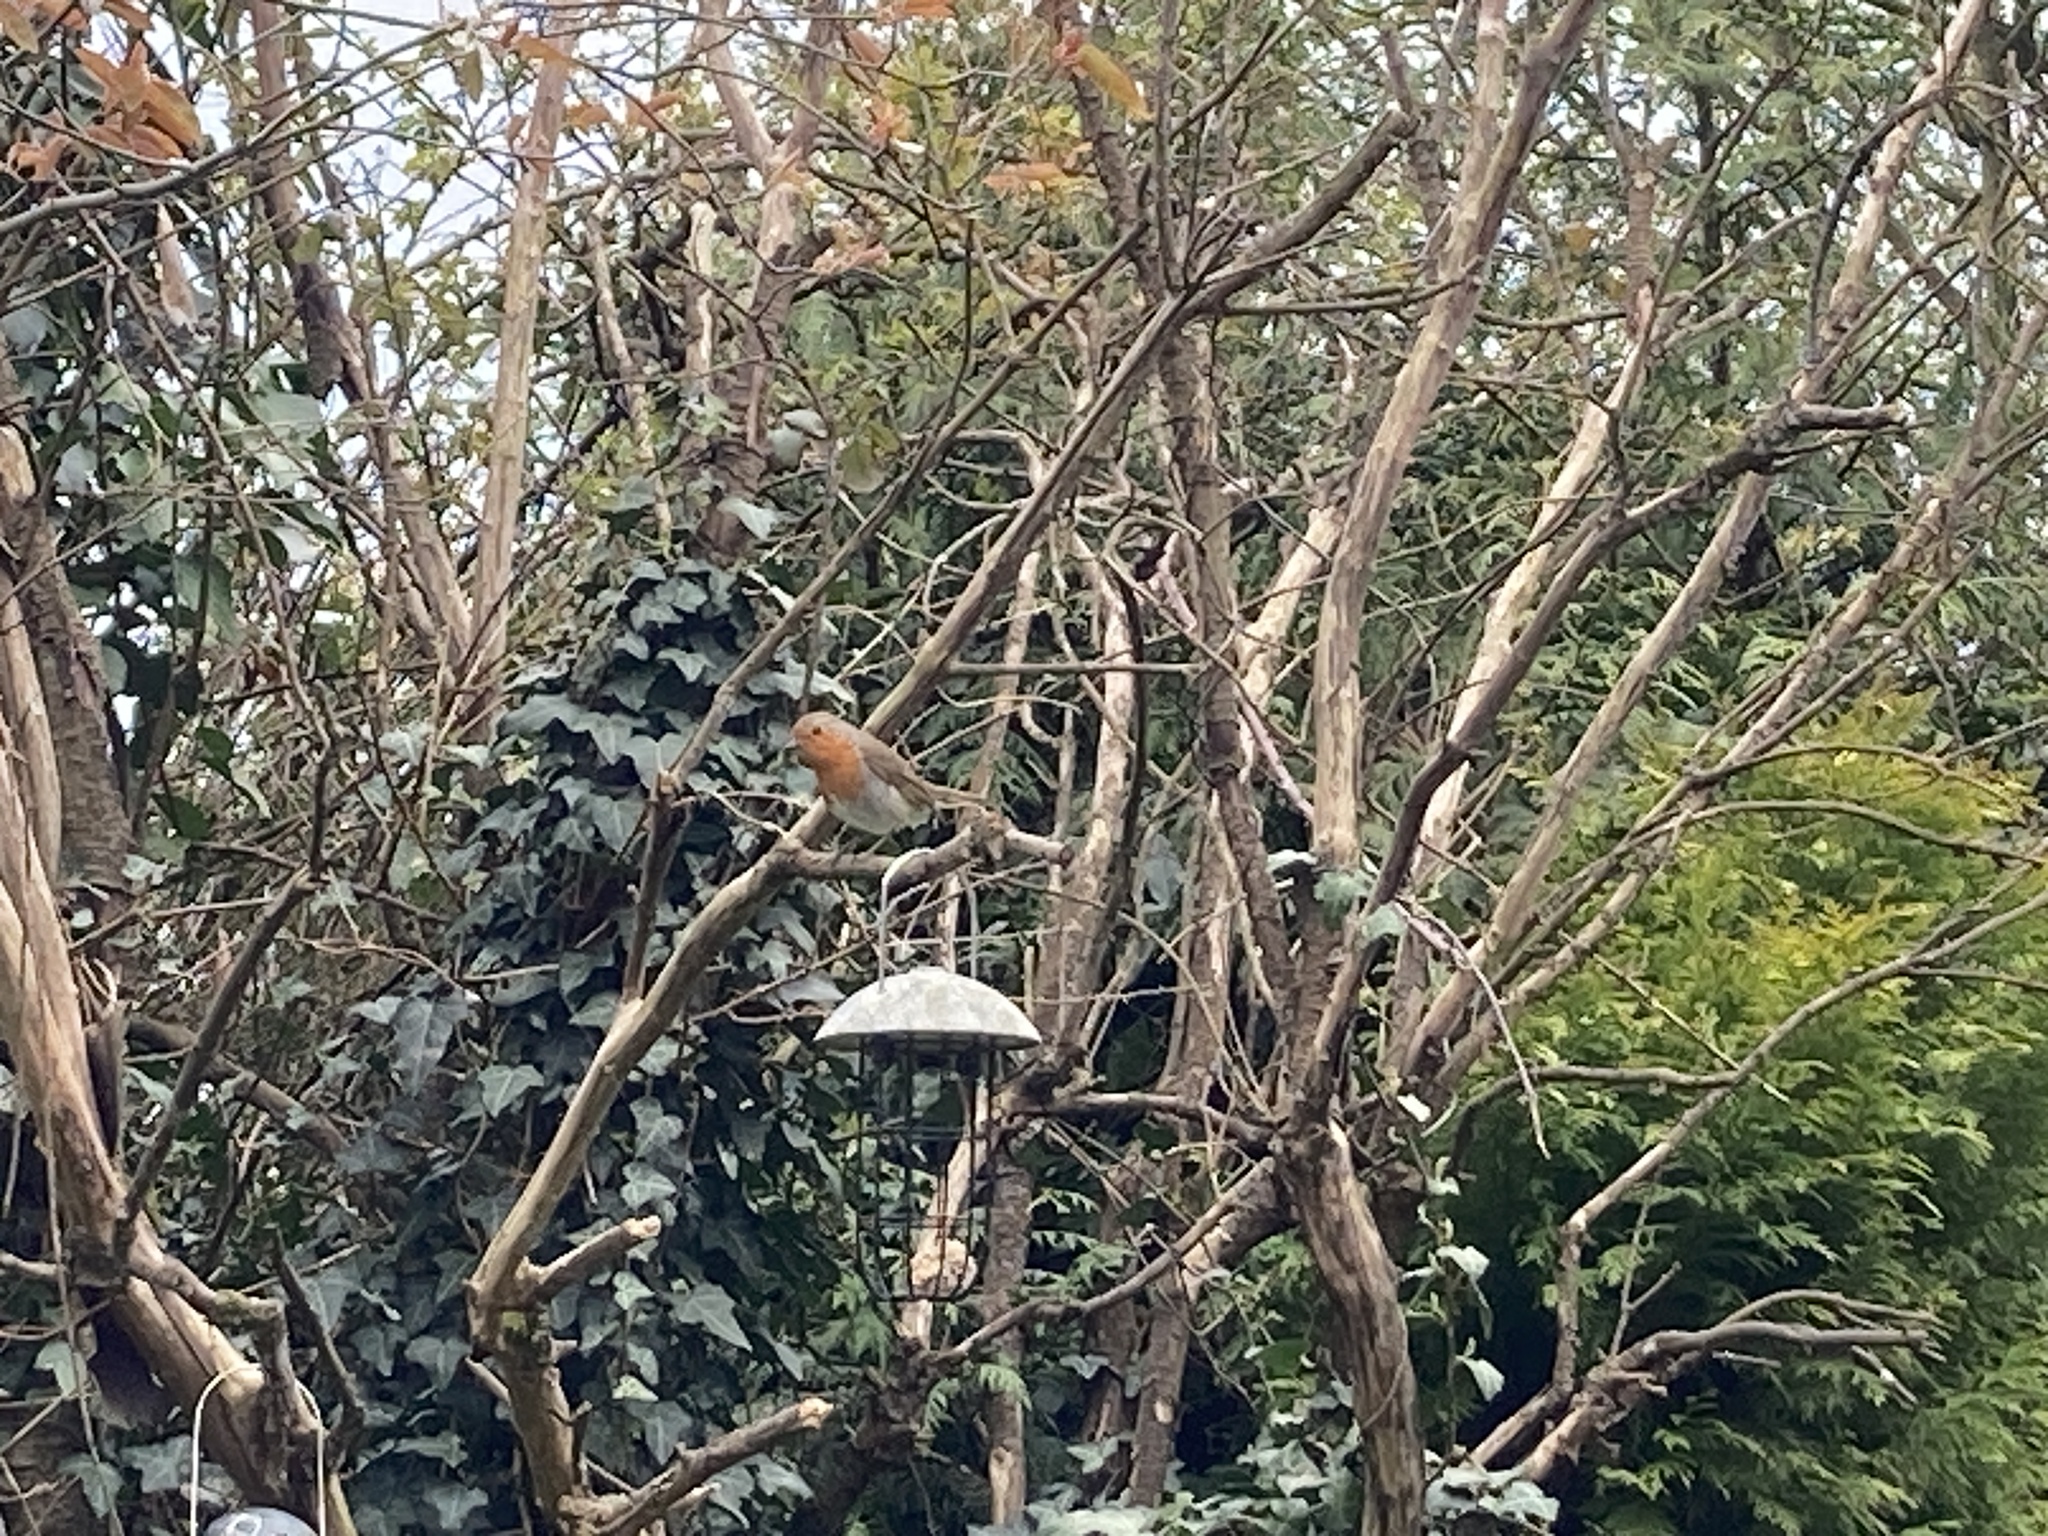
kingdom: Animalia
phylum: Chordata
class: Aves
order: Passeriformes
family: Muscicapidae
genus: Erithacus
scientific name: Erithacus rubecula
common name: European robin
